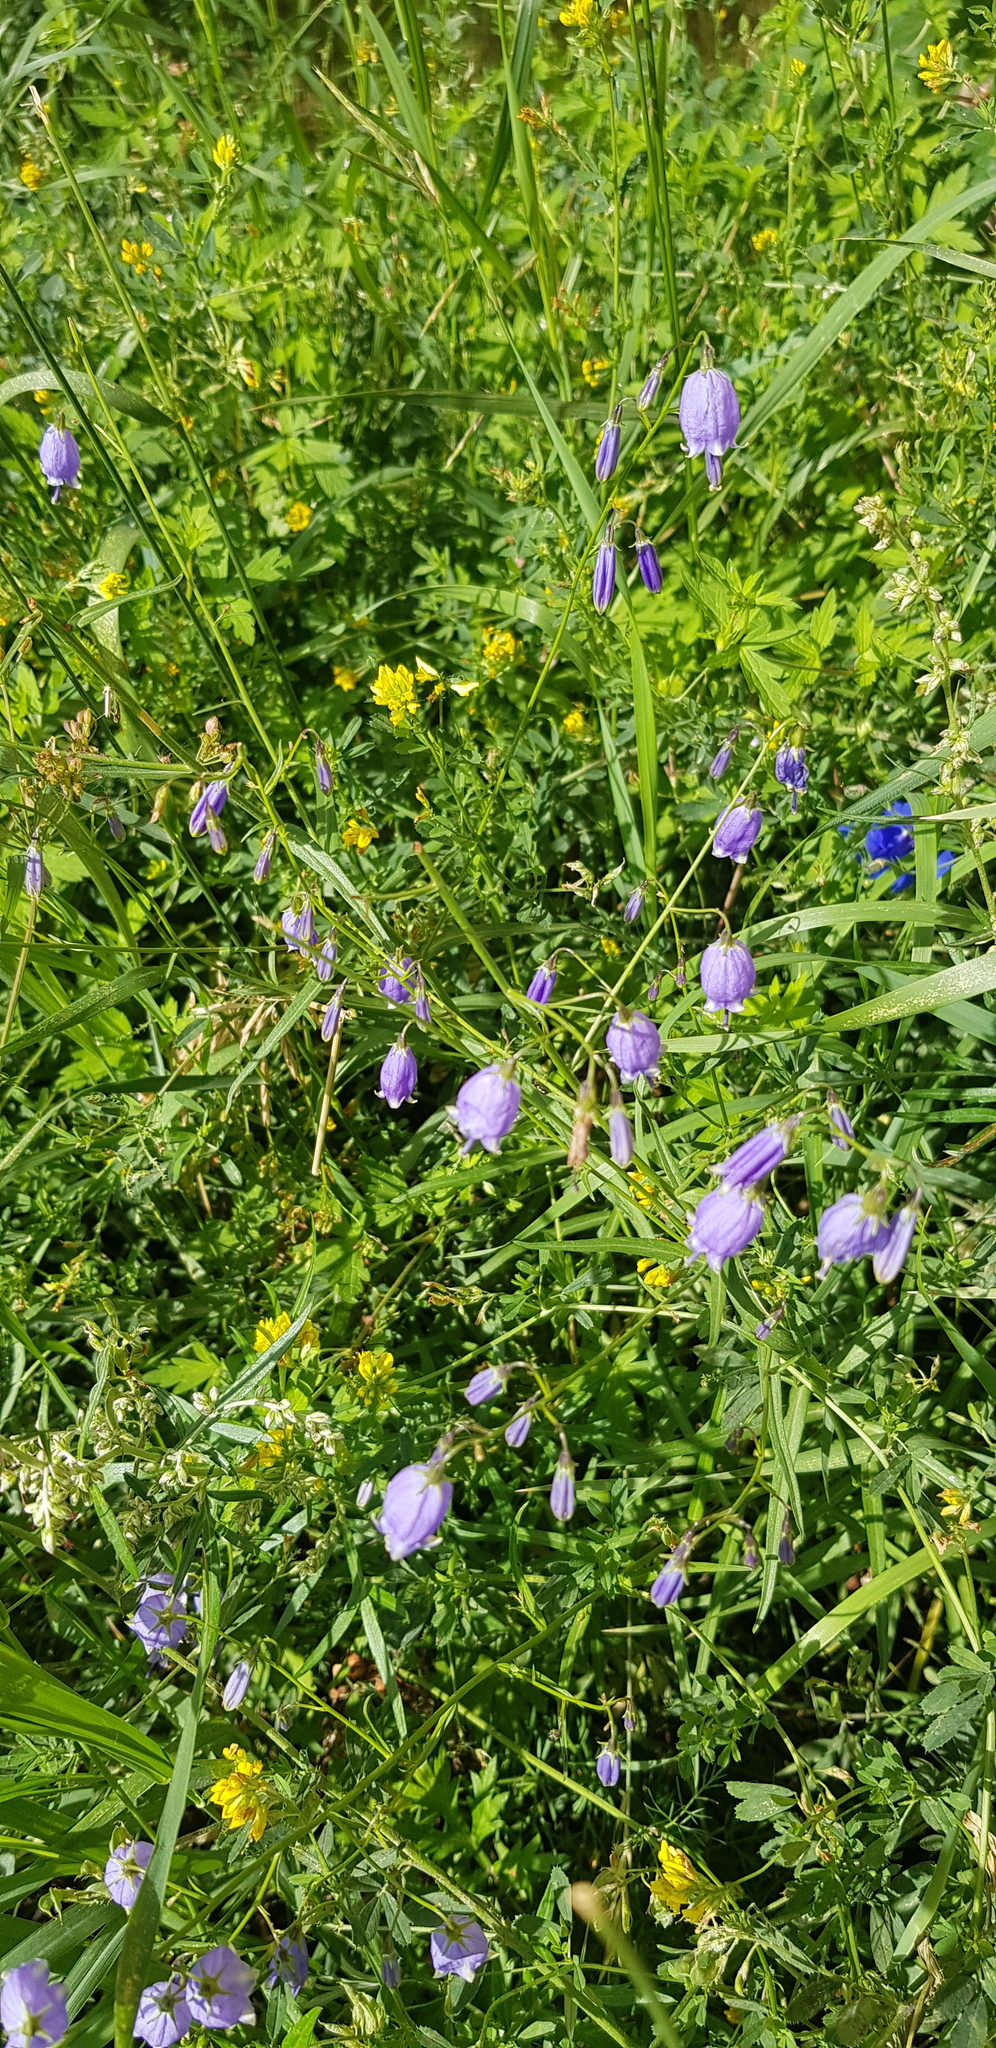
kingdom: Plantae
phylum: Tracheophyta
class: Magnoliopsida
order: Asterales
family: Campanulaceae
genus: Adenophora
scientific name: Adenophora stenanthina
